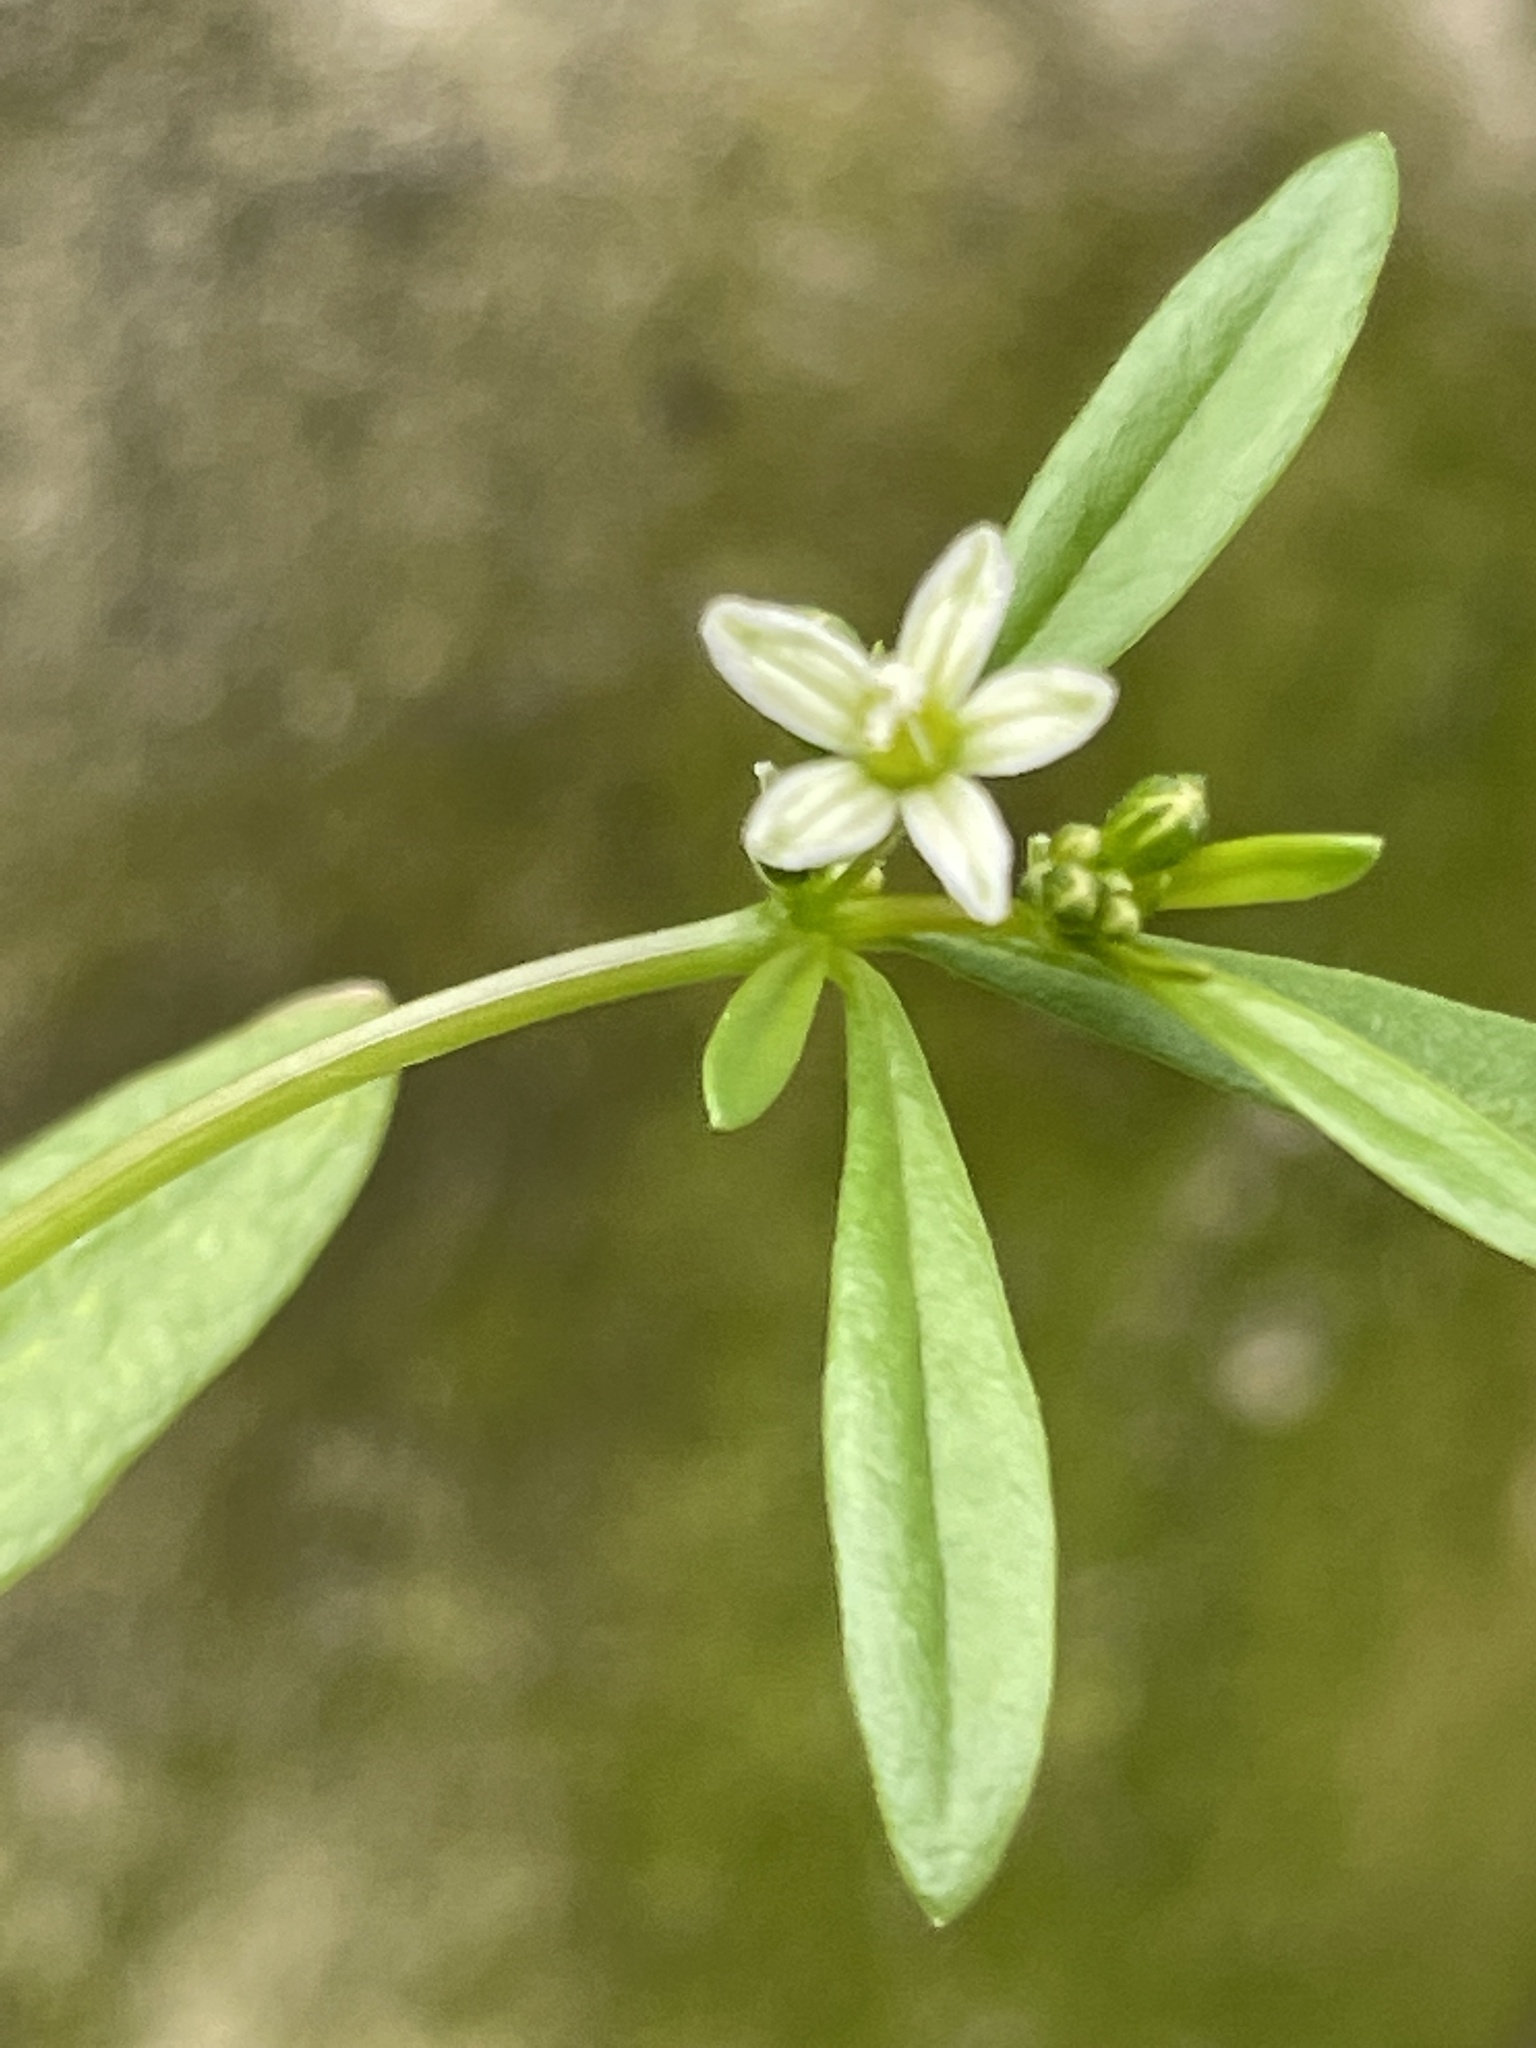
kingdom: Plantae
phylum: Tracheophyta
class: Magnoliopsida
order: Caryophyllales
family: Molluginaceae
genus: Mollugo
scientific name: Mollugo verticillata
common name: Green carpetweed
